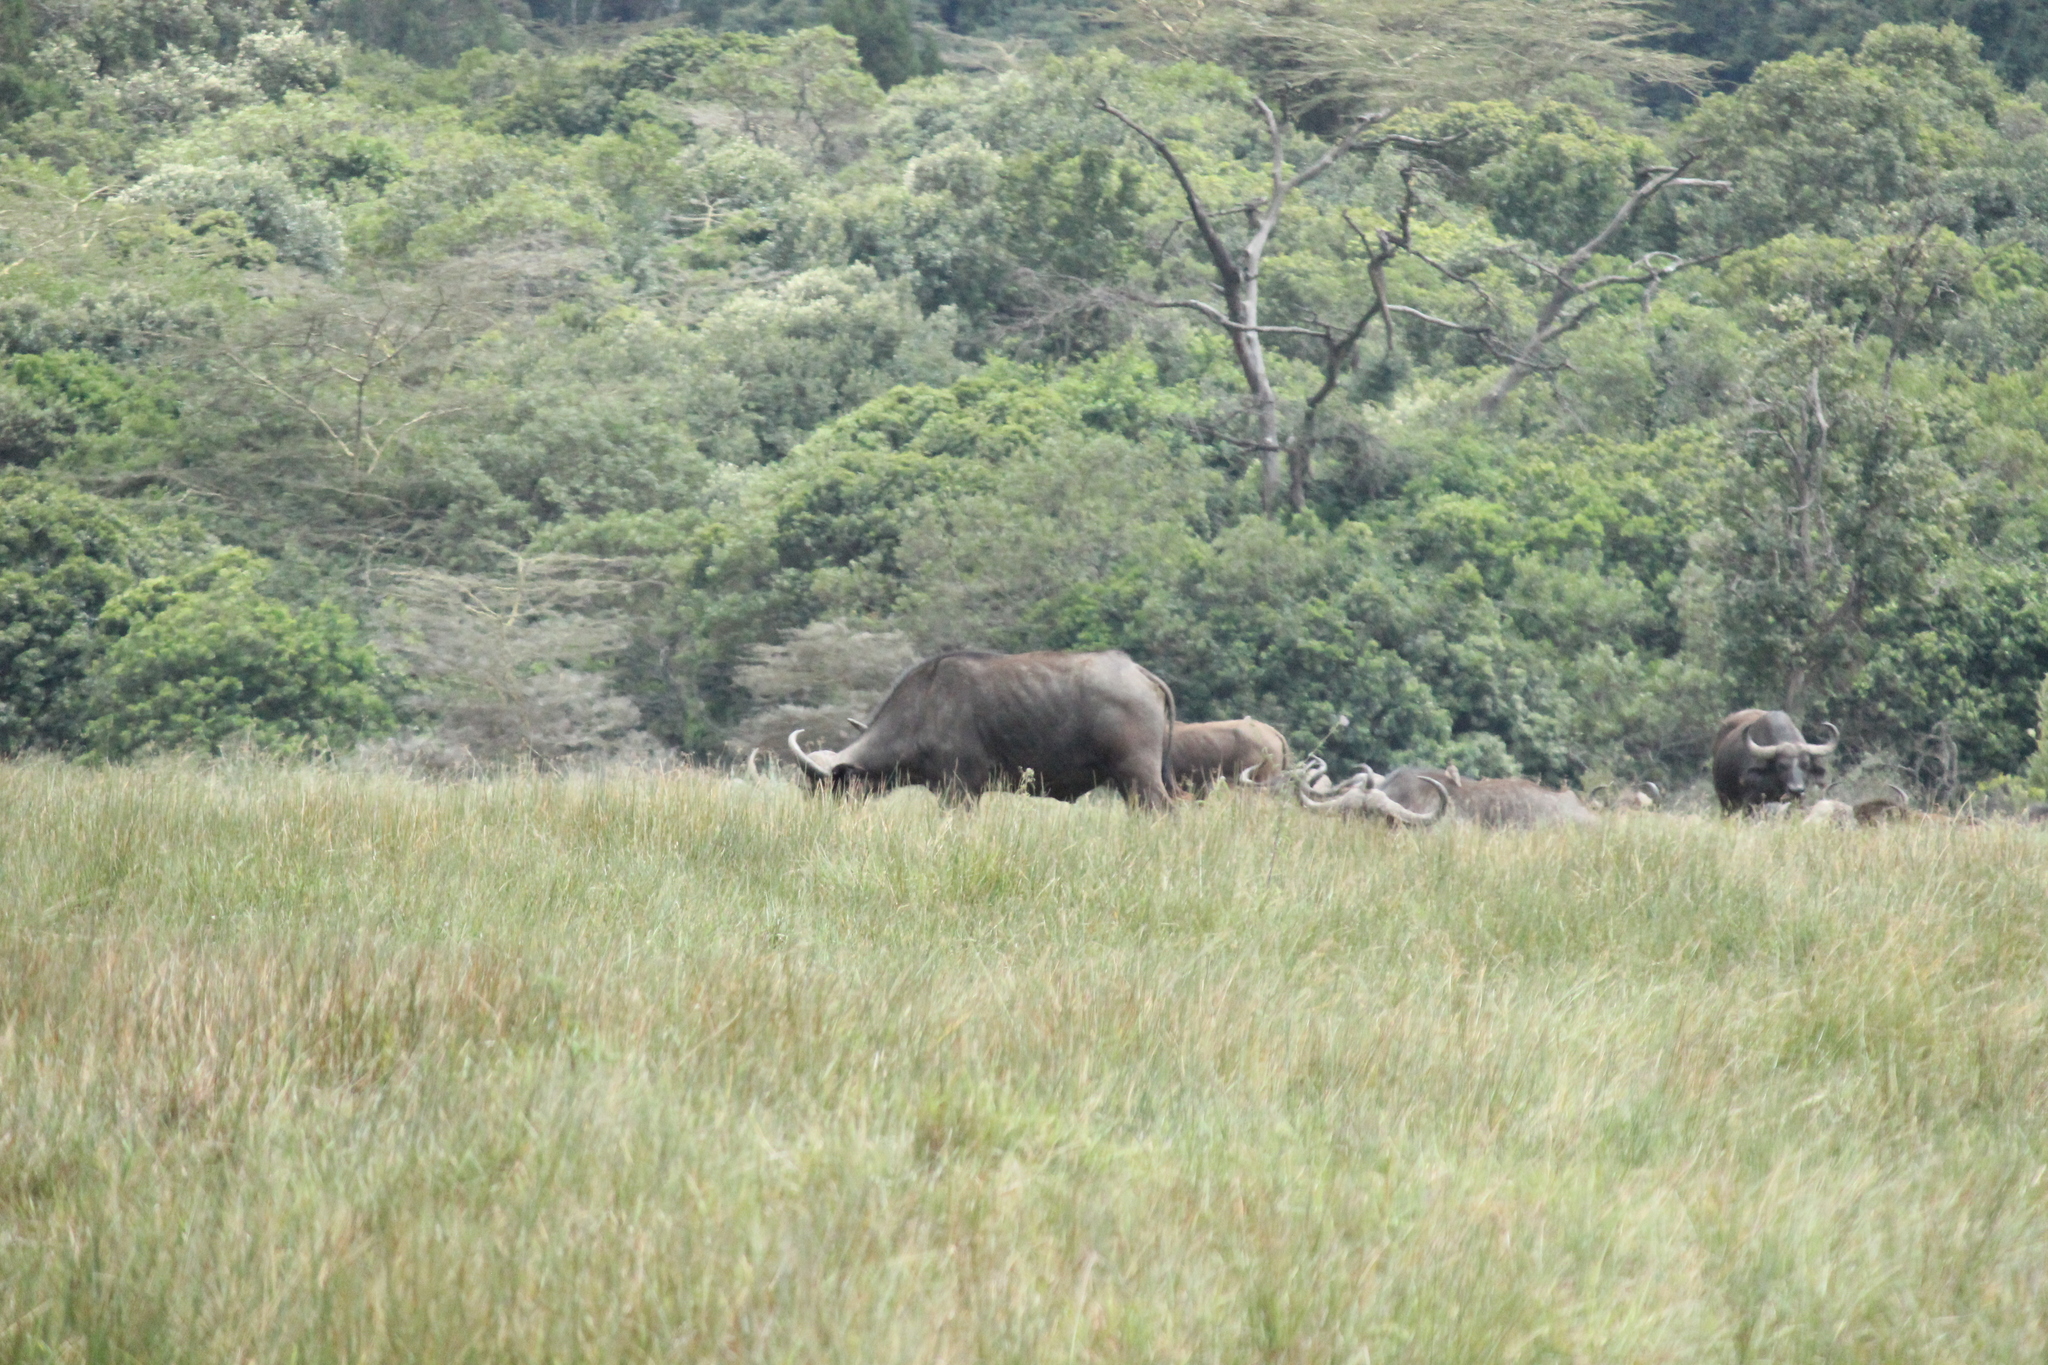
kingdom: Animalia
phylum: Chordata
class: Mammalia
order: Artiodactyla
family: Bovidae
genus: Syncerus
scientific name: Syncerus caffer
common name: African buffalo
